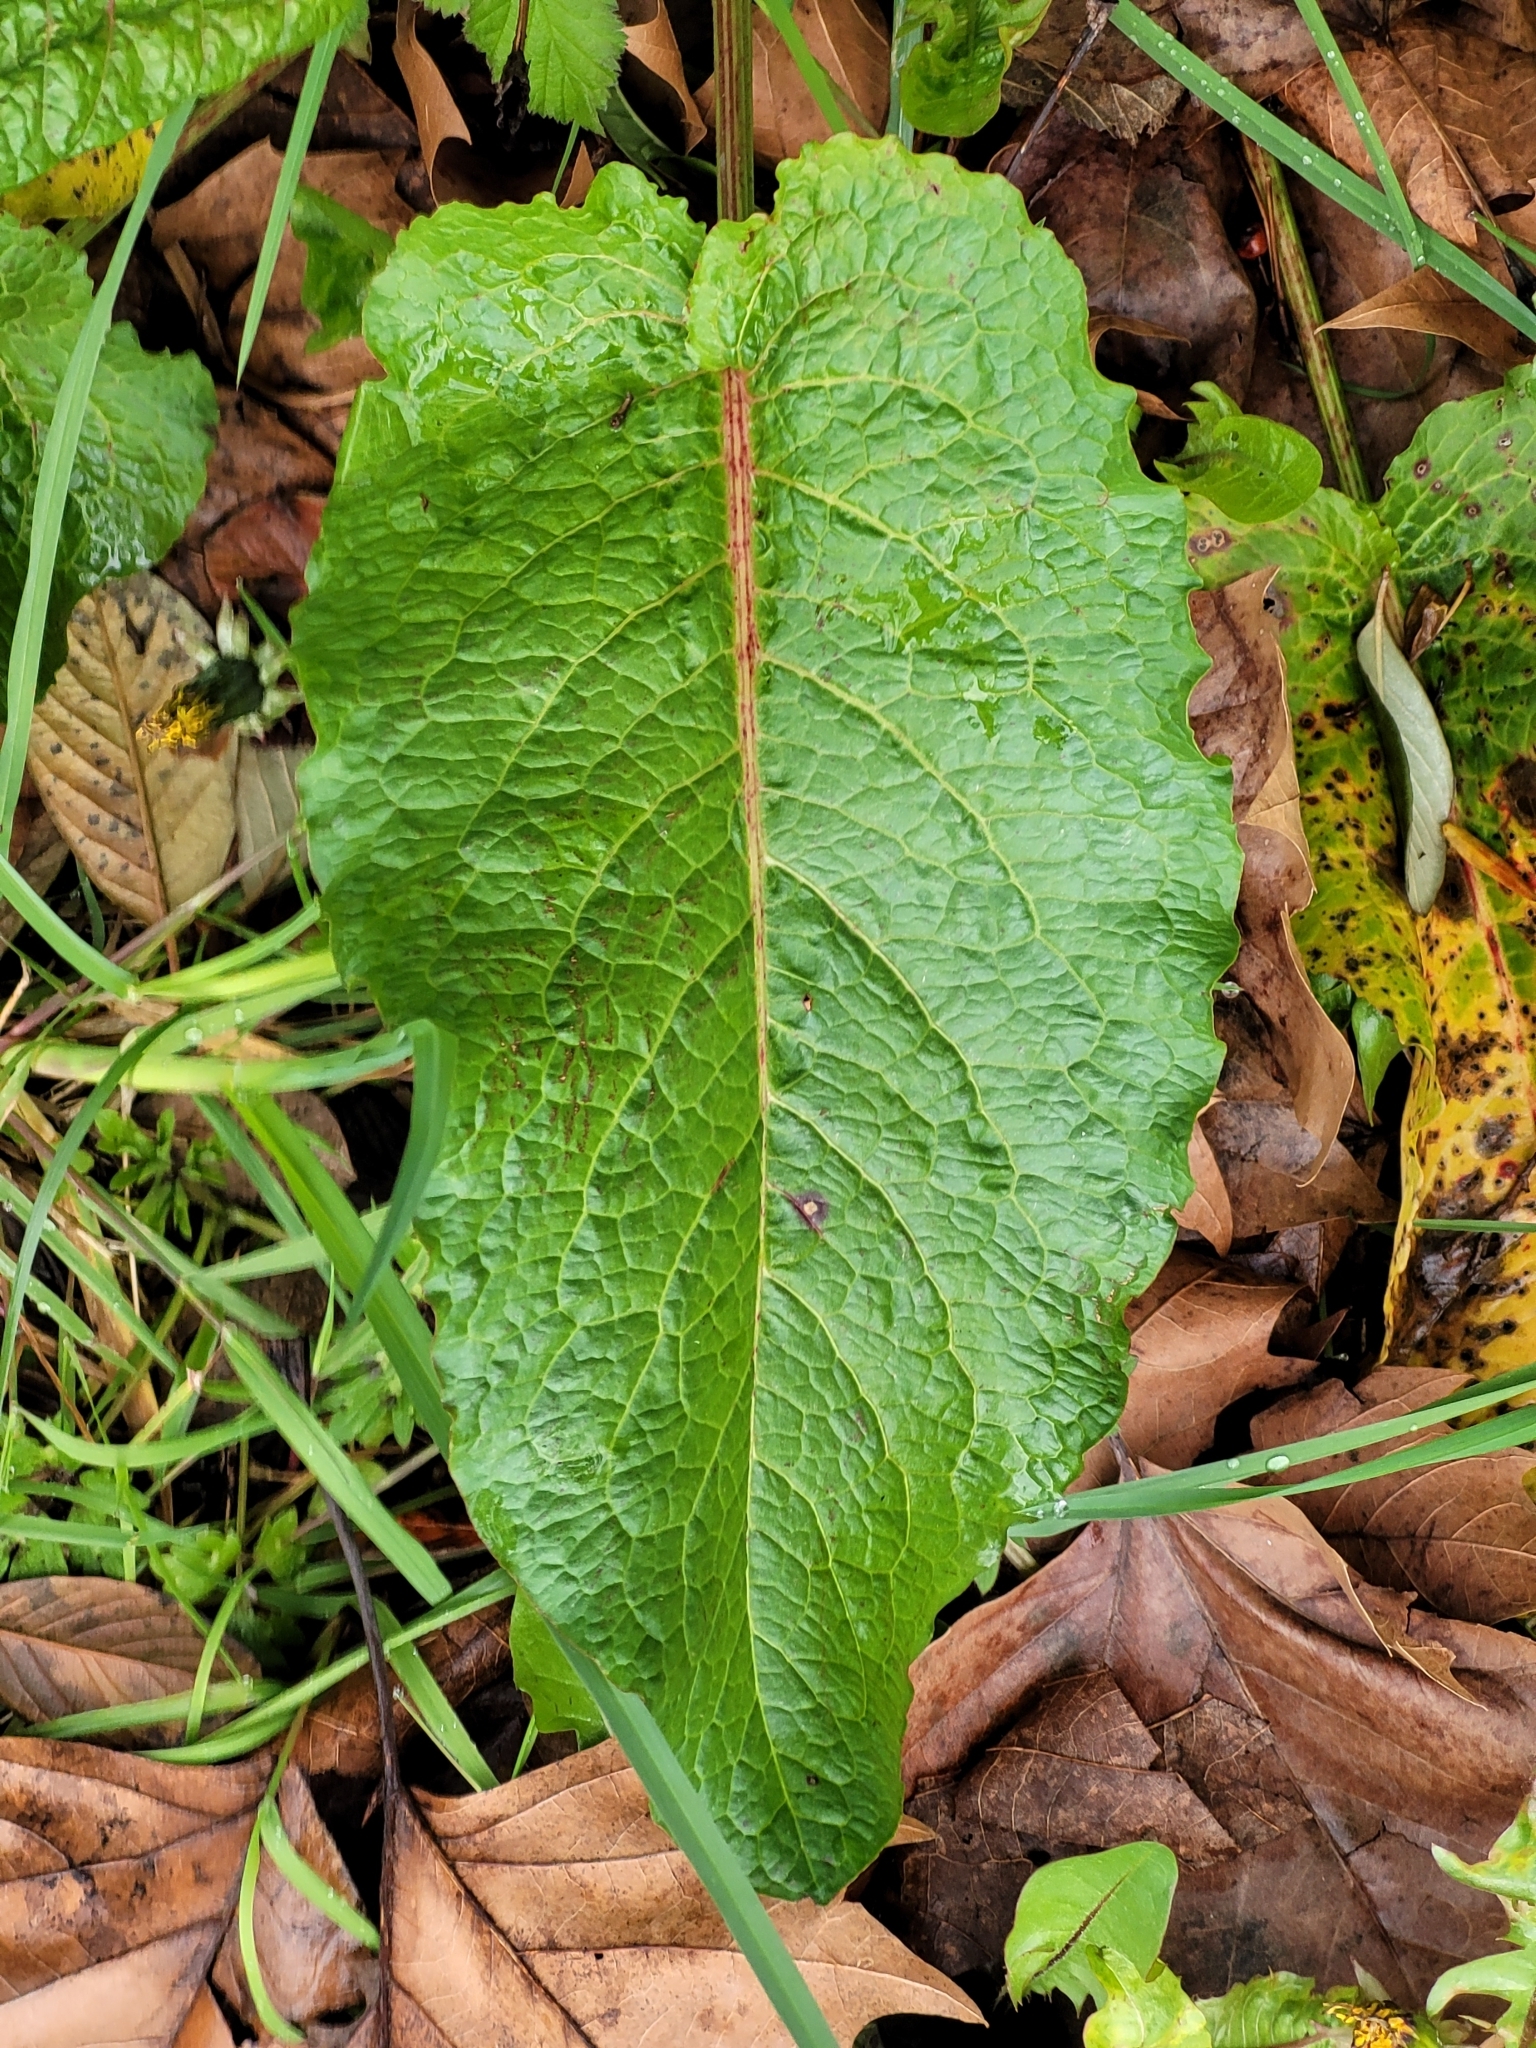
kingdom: Plantae
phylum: Tracheophyta
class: Magnoliopsida
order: Caryophyllales
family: Polygonaceae
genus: Rumex
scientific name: Rumex obtusifolius
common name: Bitter dock
